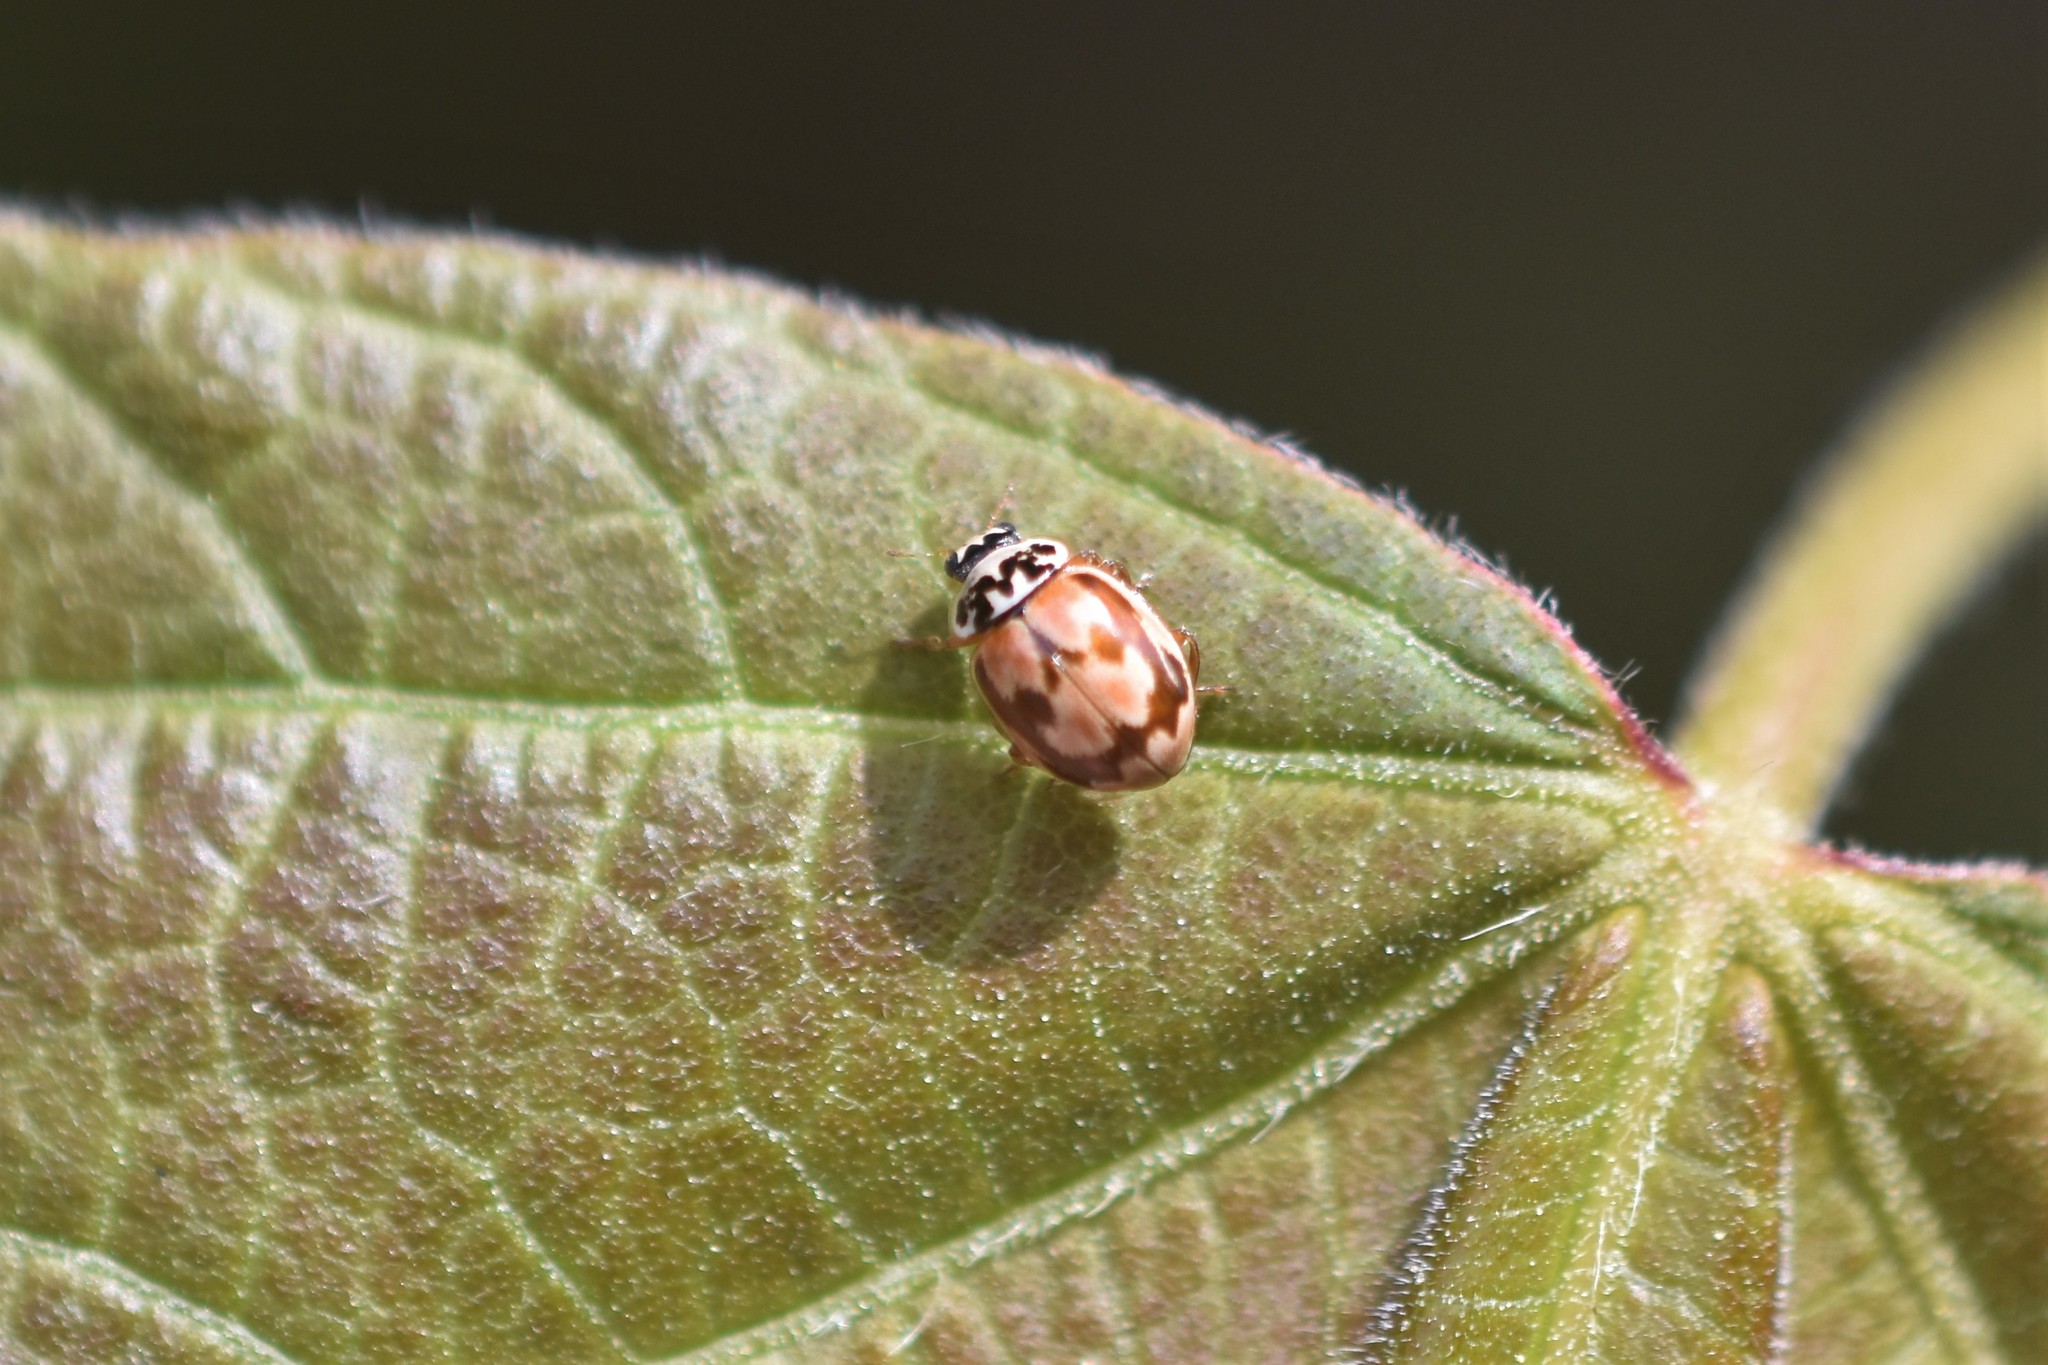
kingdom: Animalia
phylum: Arthropoda
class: Insecta
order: Coleoptera
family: Coccinellidae
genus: Mulsantina
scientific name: Mulsantina picta
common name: Painted ladybird
